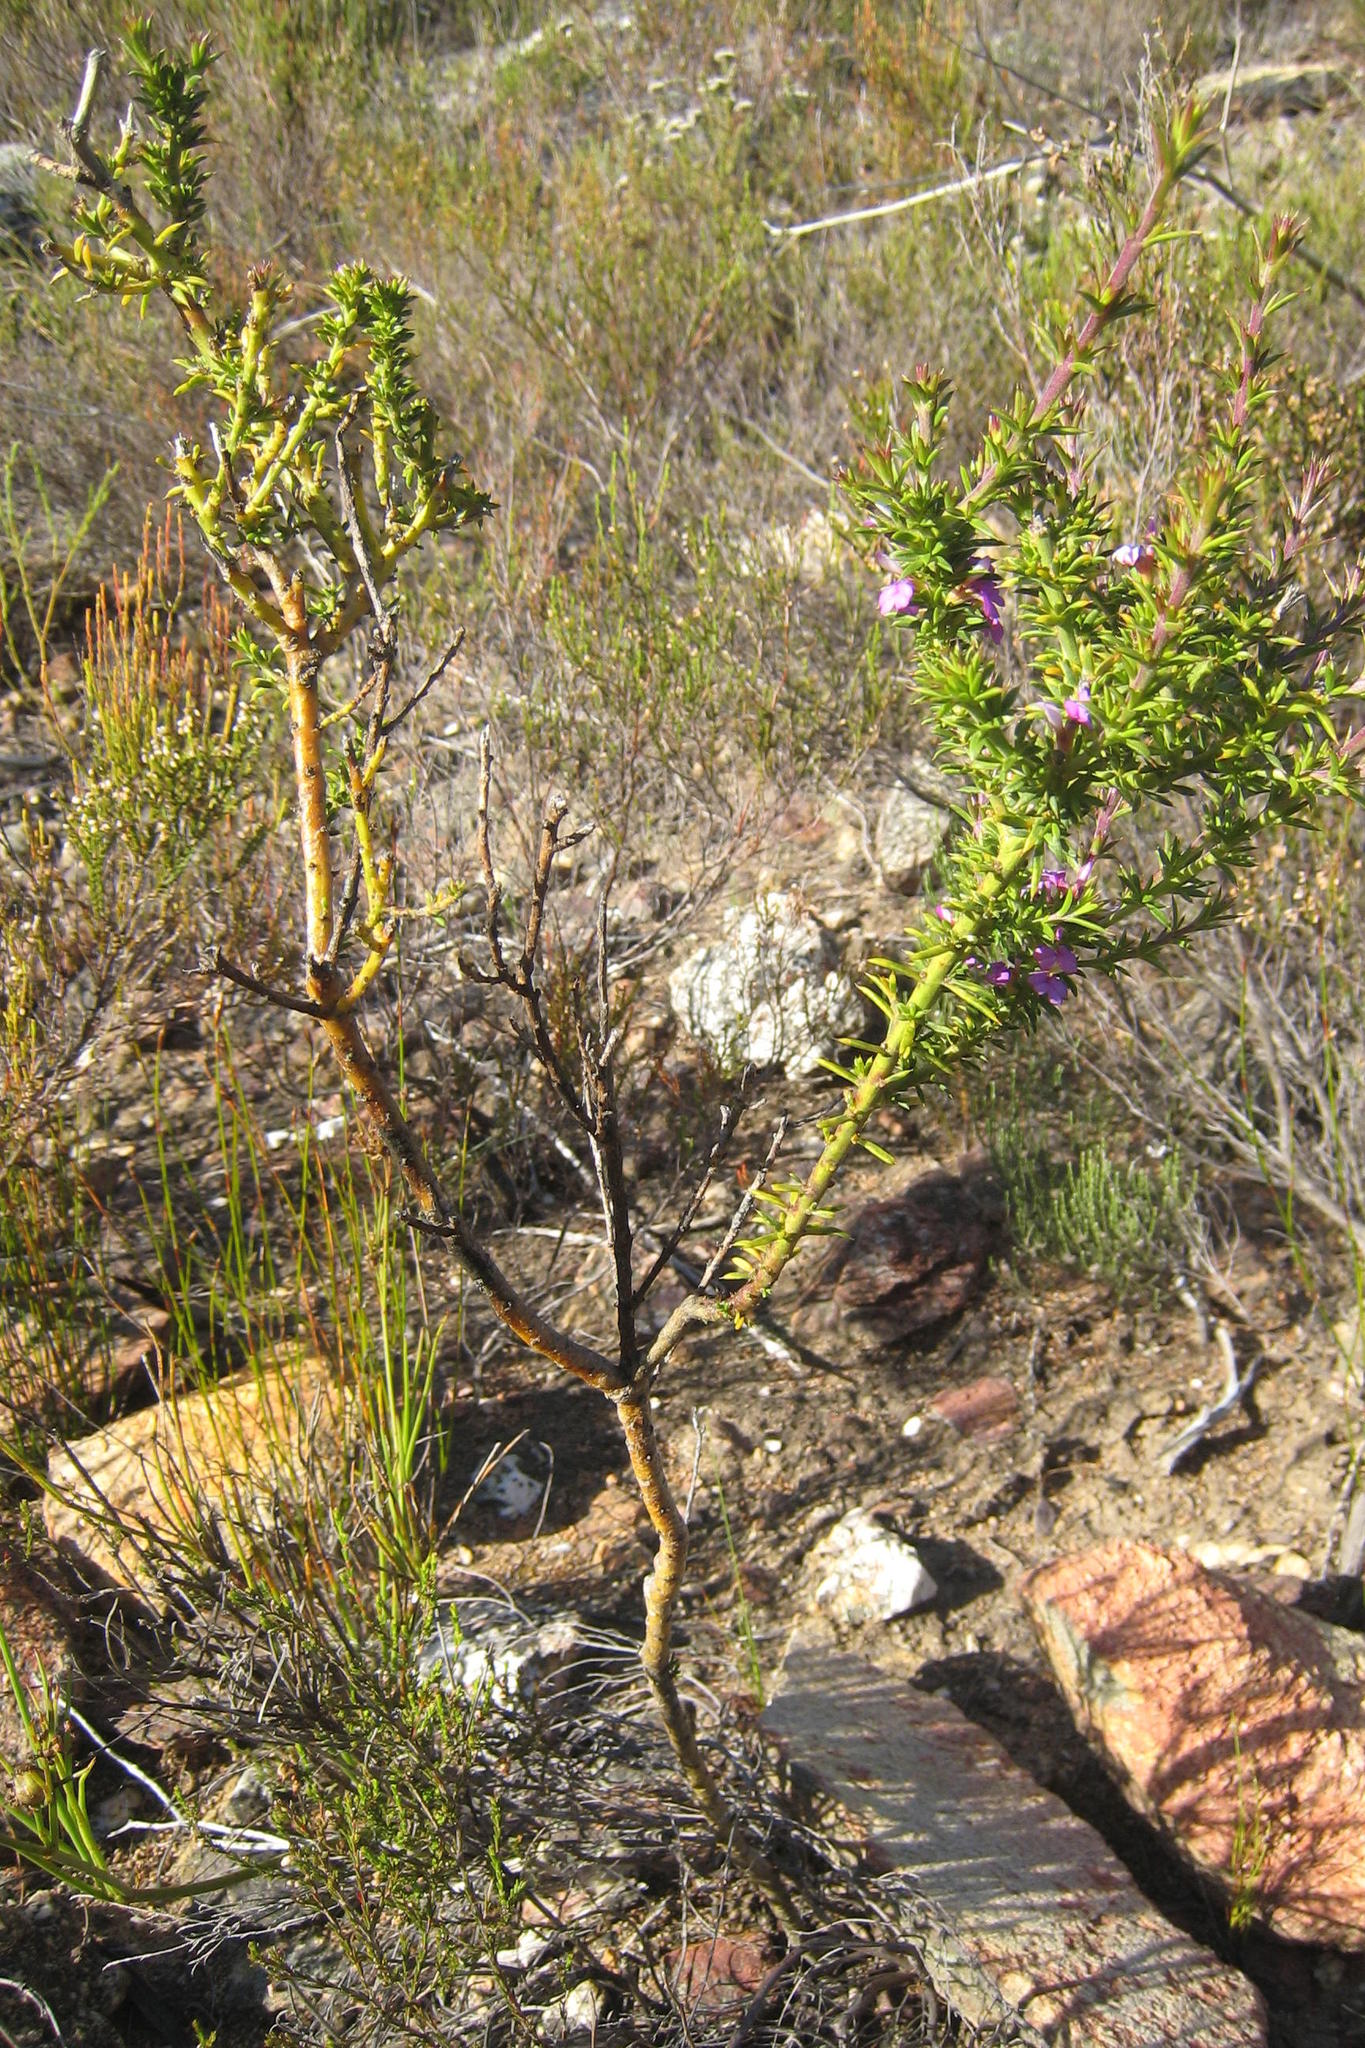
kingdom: Plantae
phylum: Tracheophyta
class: Magnoliopsida
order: Fabales
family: Polygalaceae
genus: Muraltia
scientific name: Muraltia heisteria
